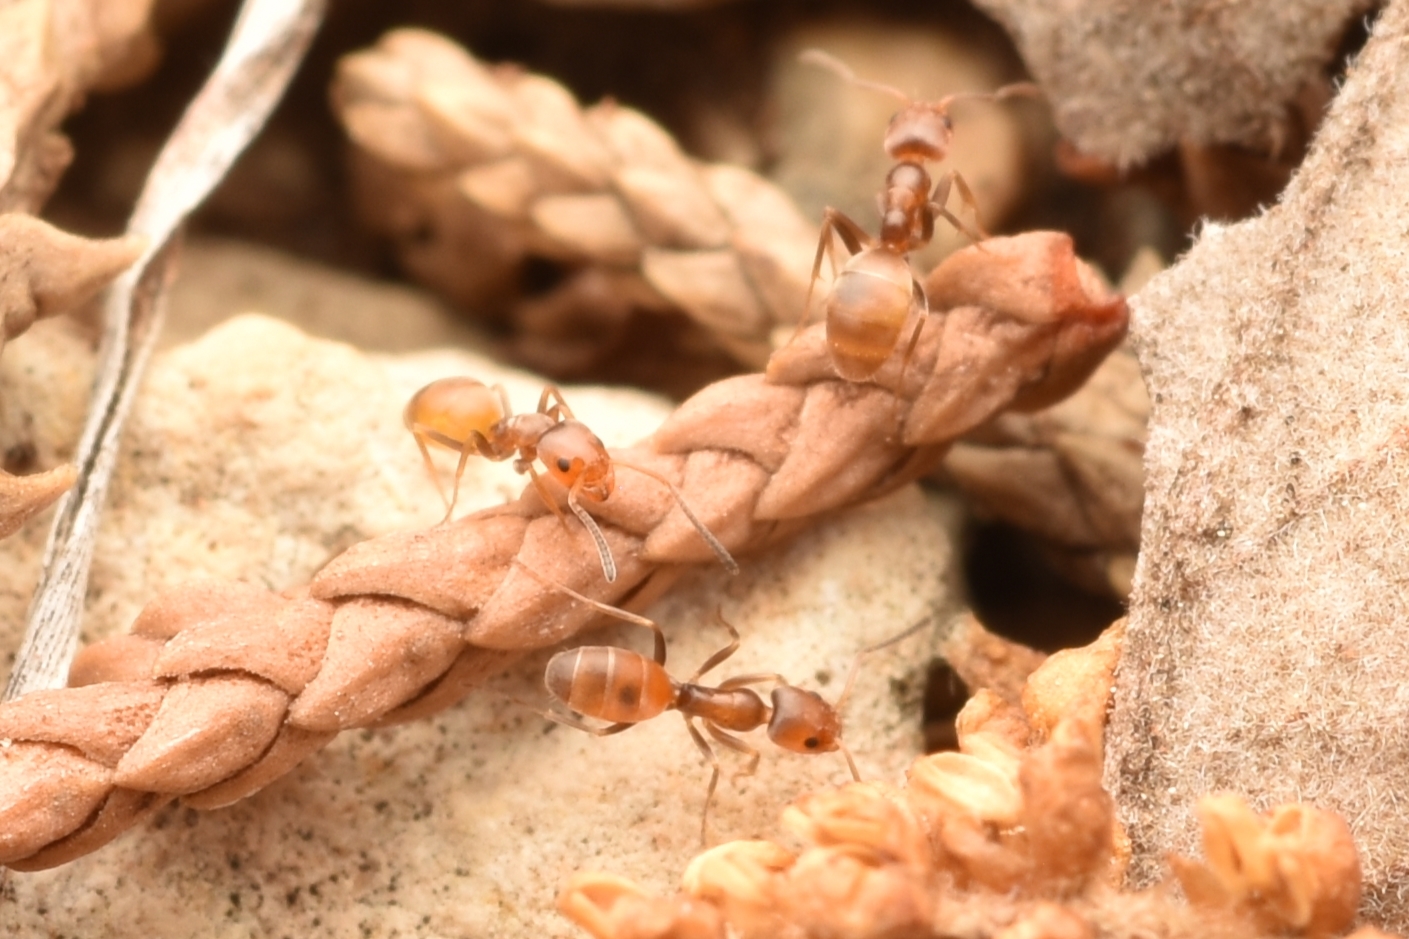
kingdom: Animalia
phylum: Arthropoda
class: Insecta
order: Hymenoptera
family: Formicidae
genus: Forelius
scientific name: Forelius pruinosus
